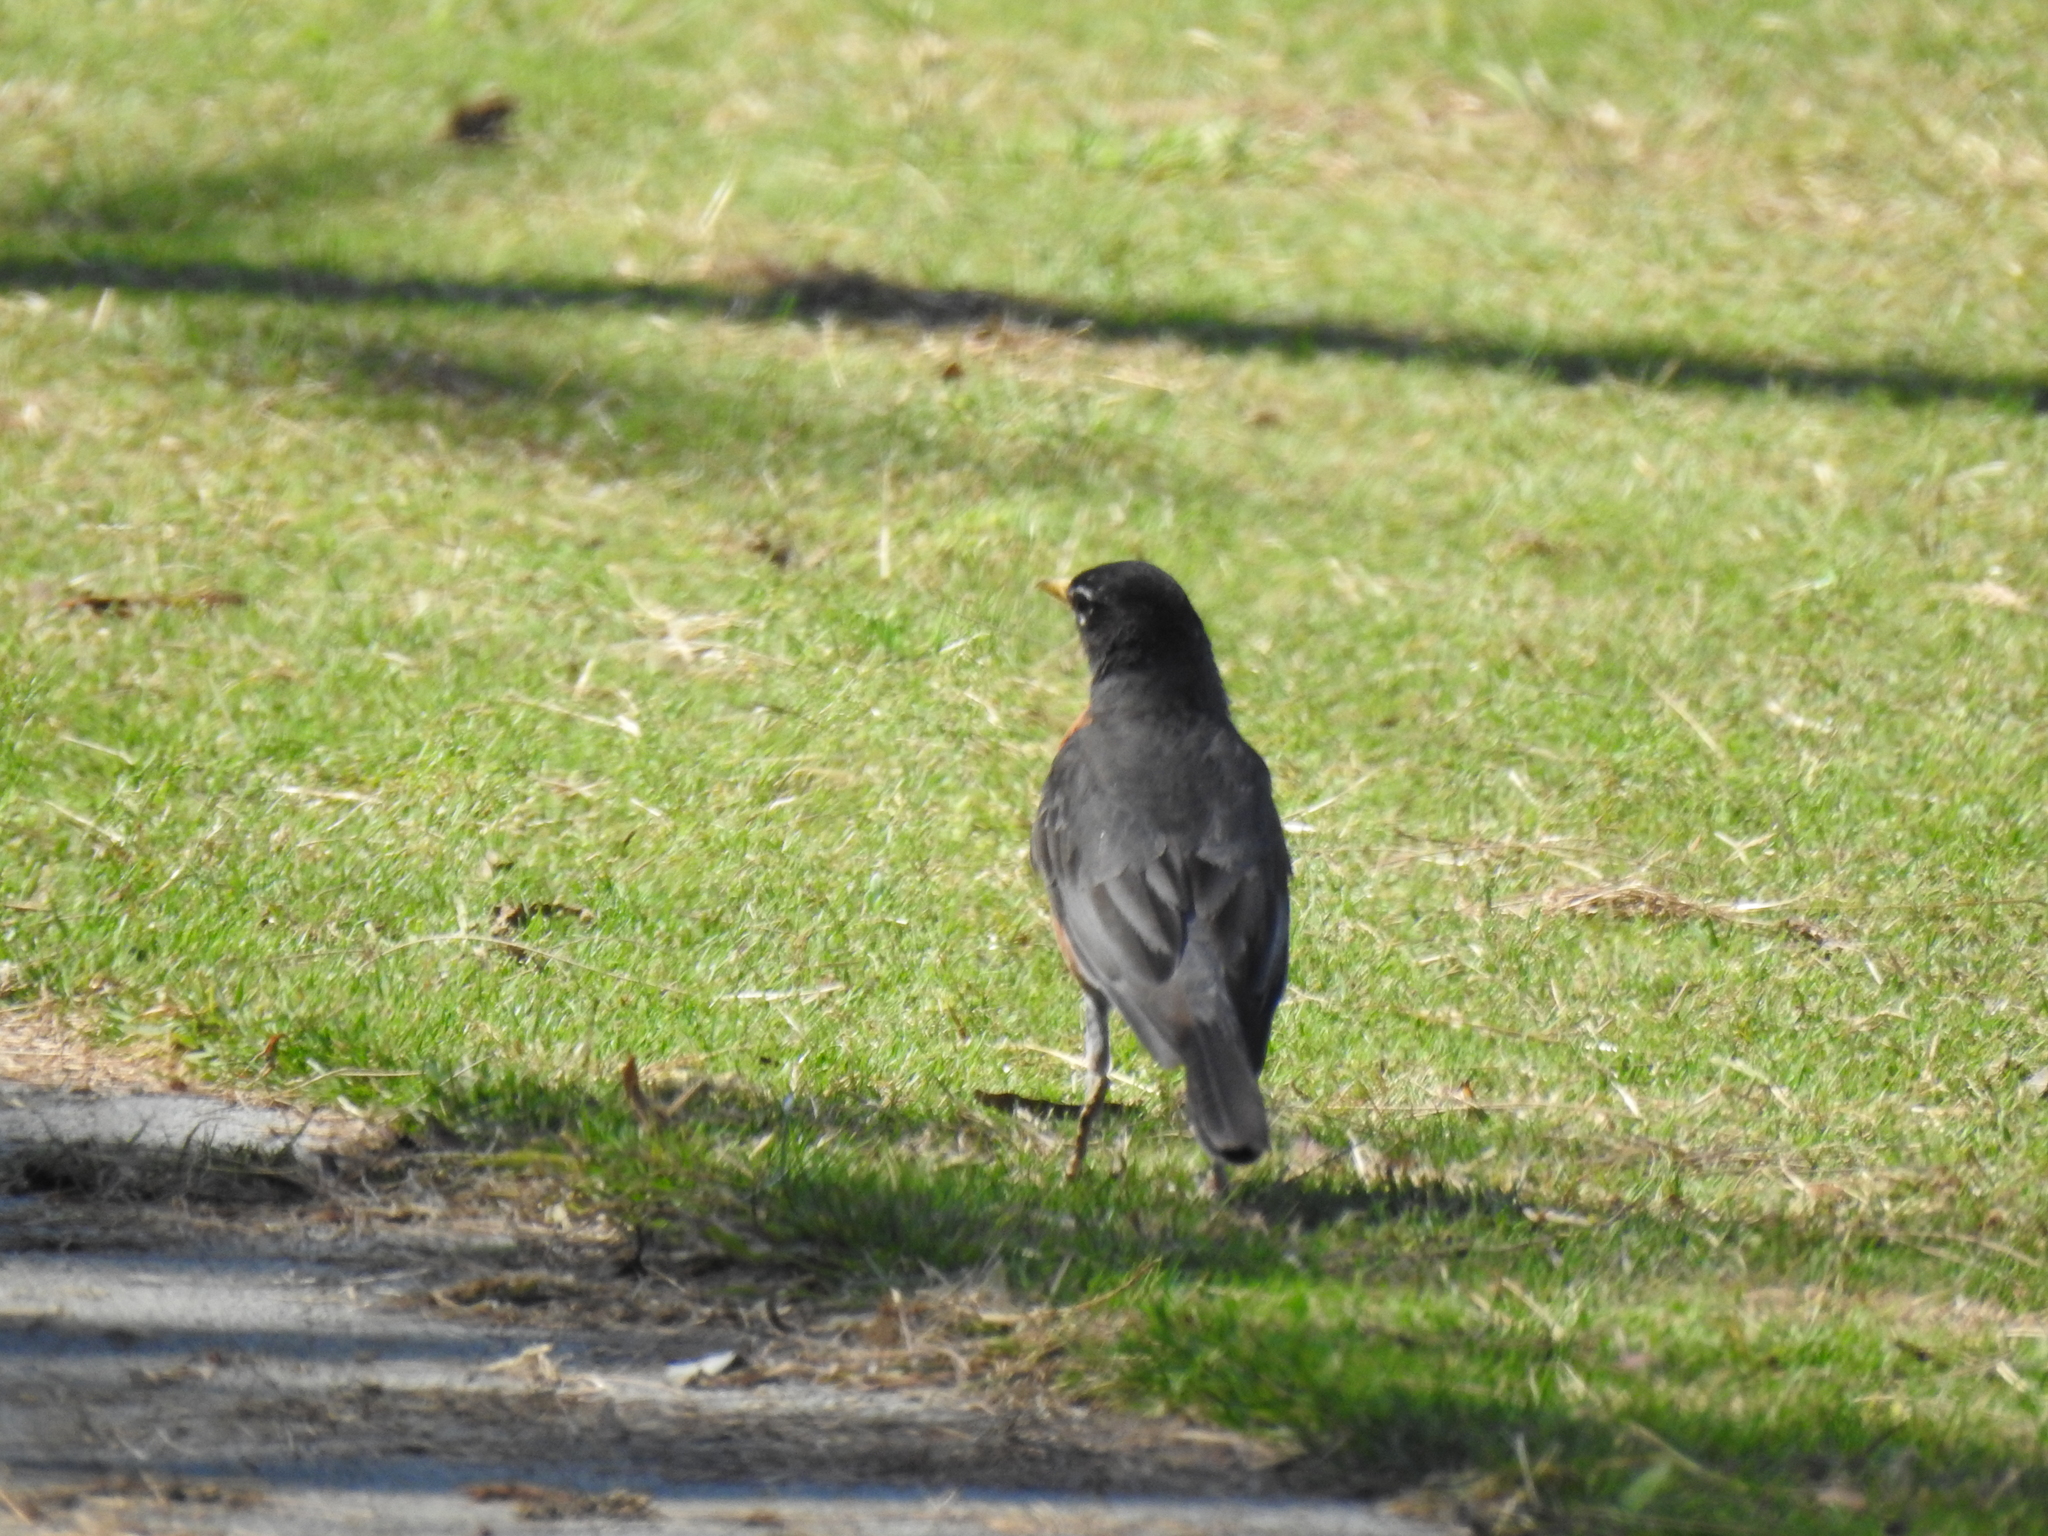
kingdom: Animalia
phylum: Chordata
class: Aves
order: Passeriformes
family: Turdidae
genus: Turdus
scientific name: Turdus migratorius
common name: American robin
